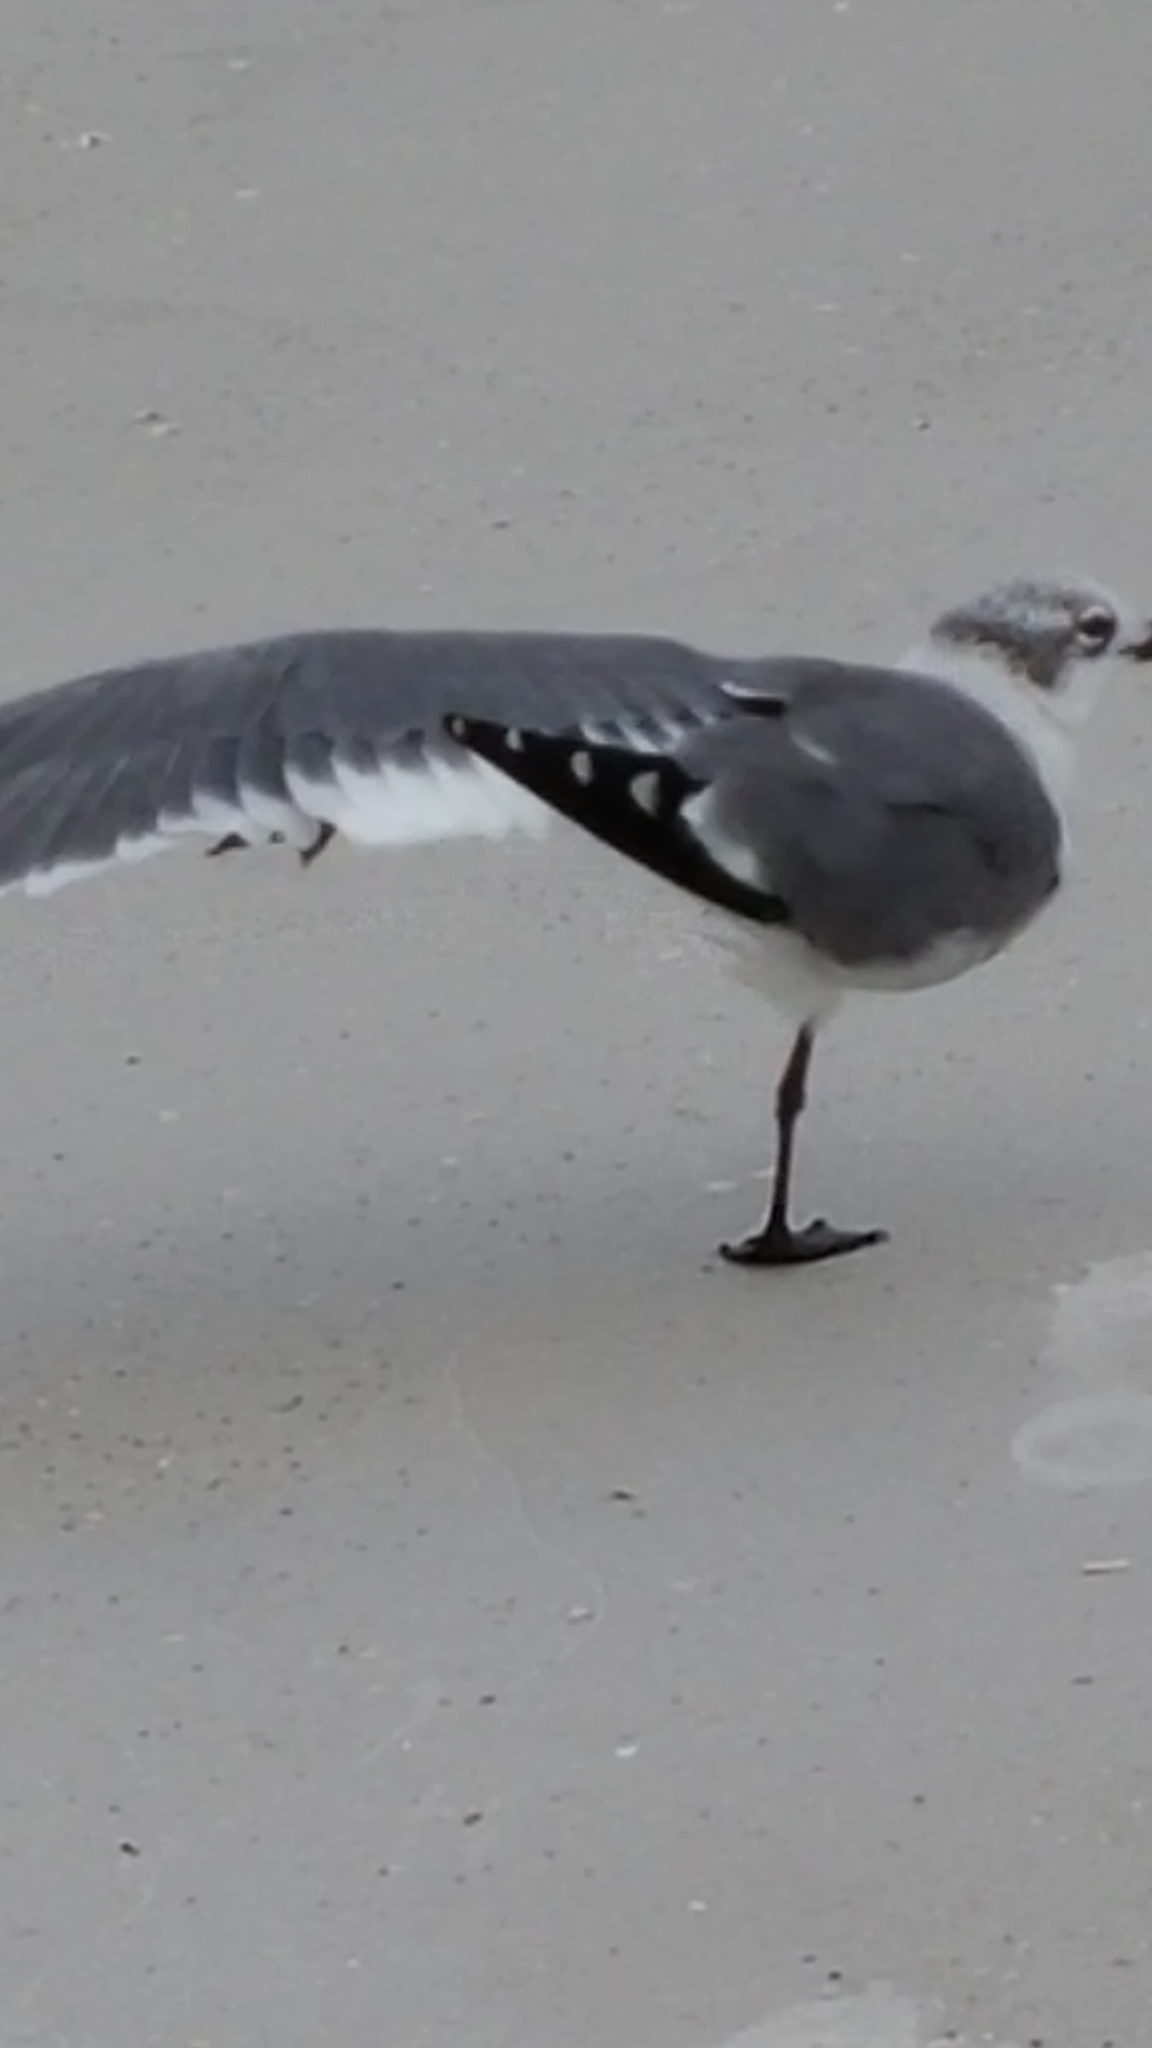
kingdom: Animalia
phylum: Chordata
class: Aves
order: Charadriiformes
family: Laridae
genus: Leucophaeus
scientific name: Leucophaeus atricilla
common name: Laughing gull
